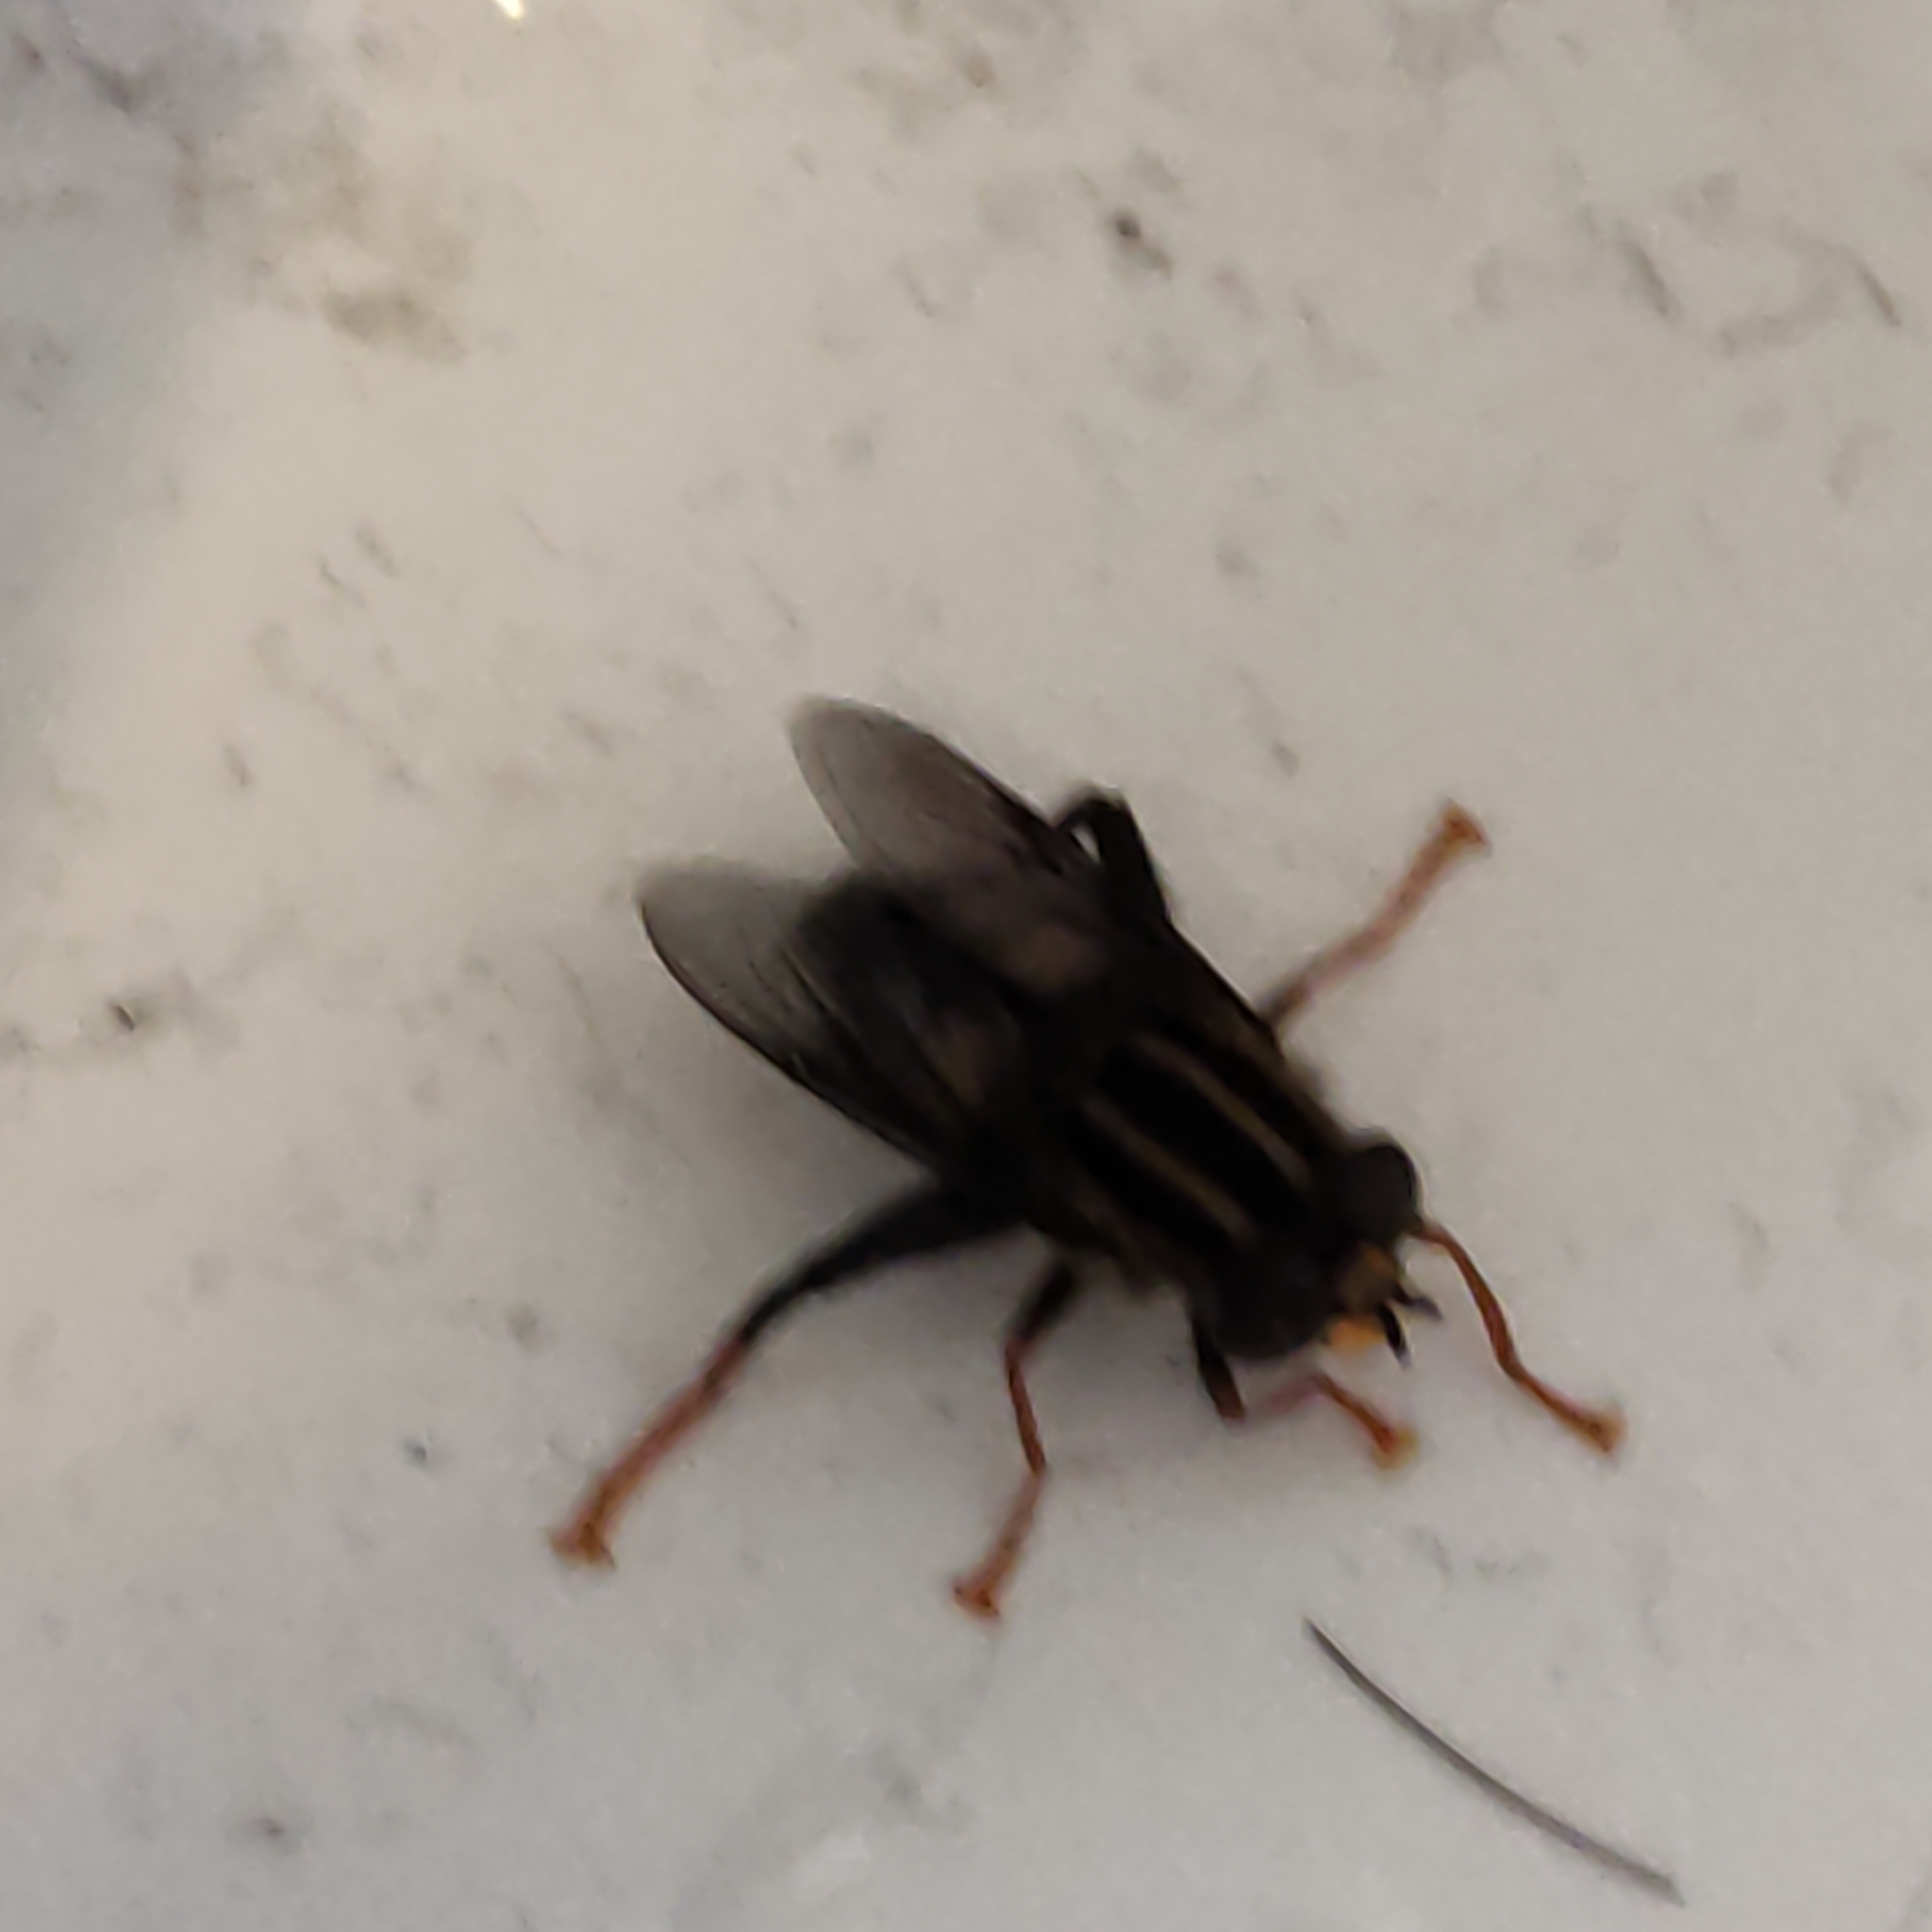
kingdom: Animalia
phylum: Arthropoda
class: Insecta
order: Diptera
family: Syrphidae
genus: Helophilus
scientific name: Helophilus seelandicus
